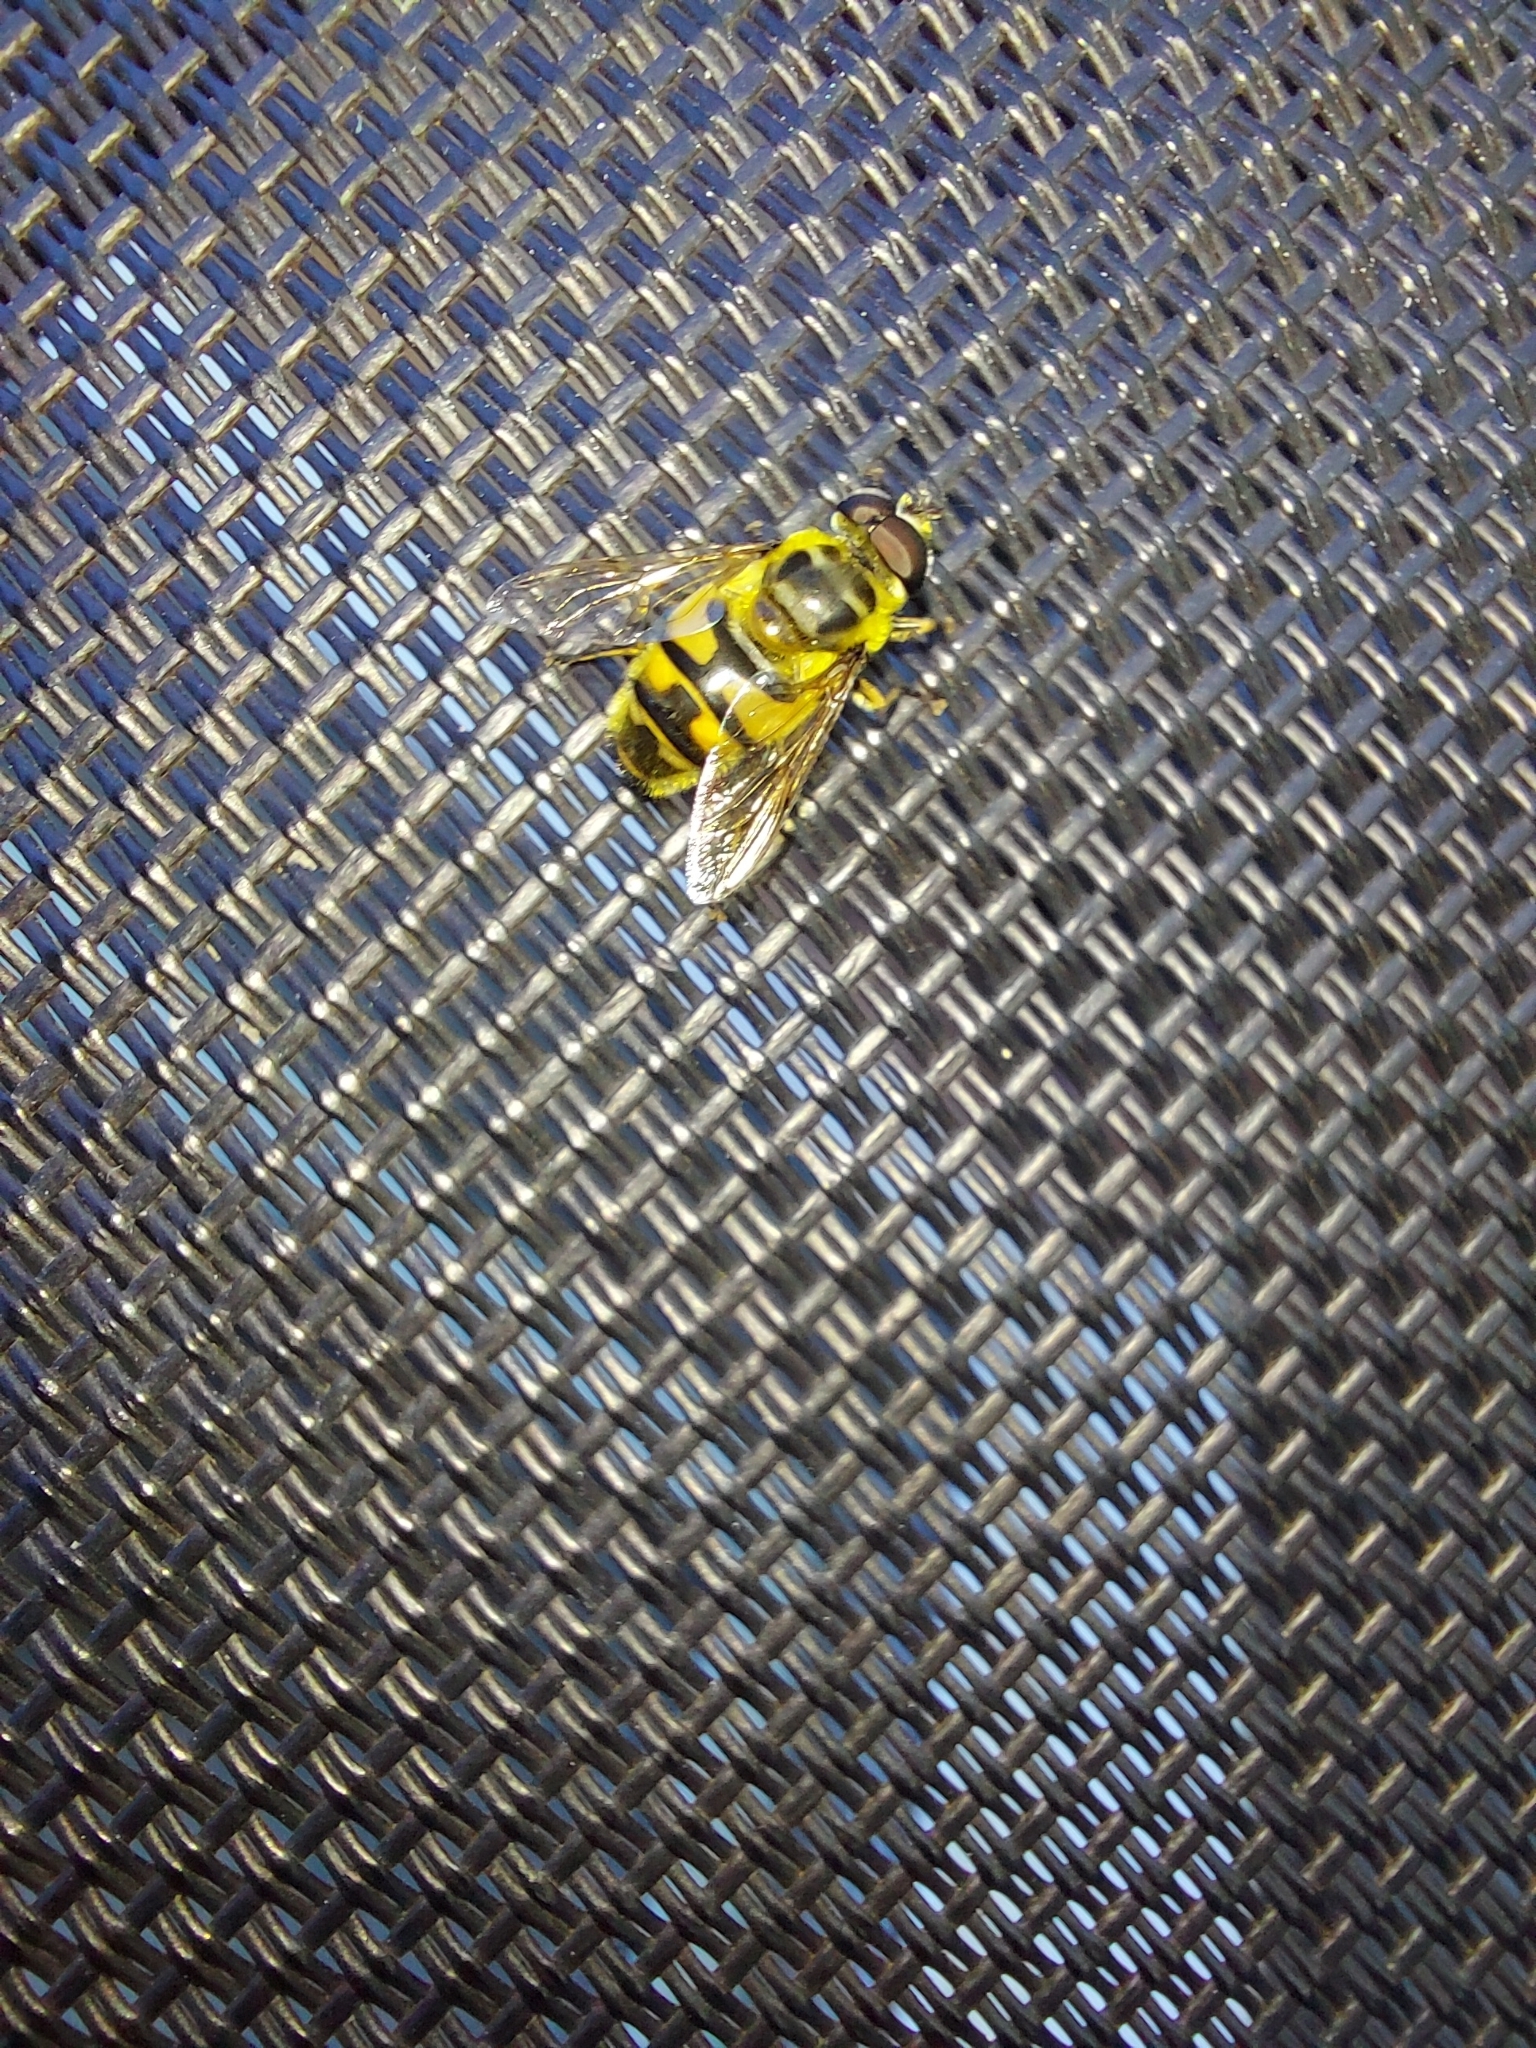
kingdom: Animalia
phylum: Arthropoda
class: Insecta
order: Diptera
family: Syrphidae
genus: Myathropa
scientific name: Myathropa florea
